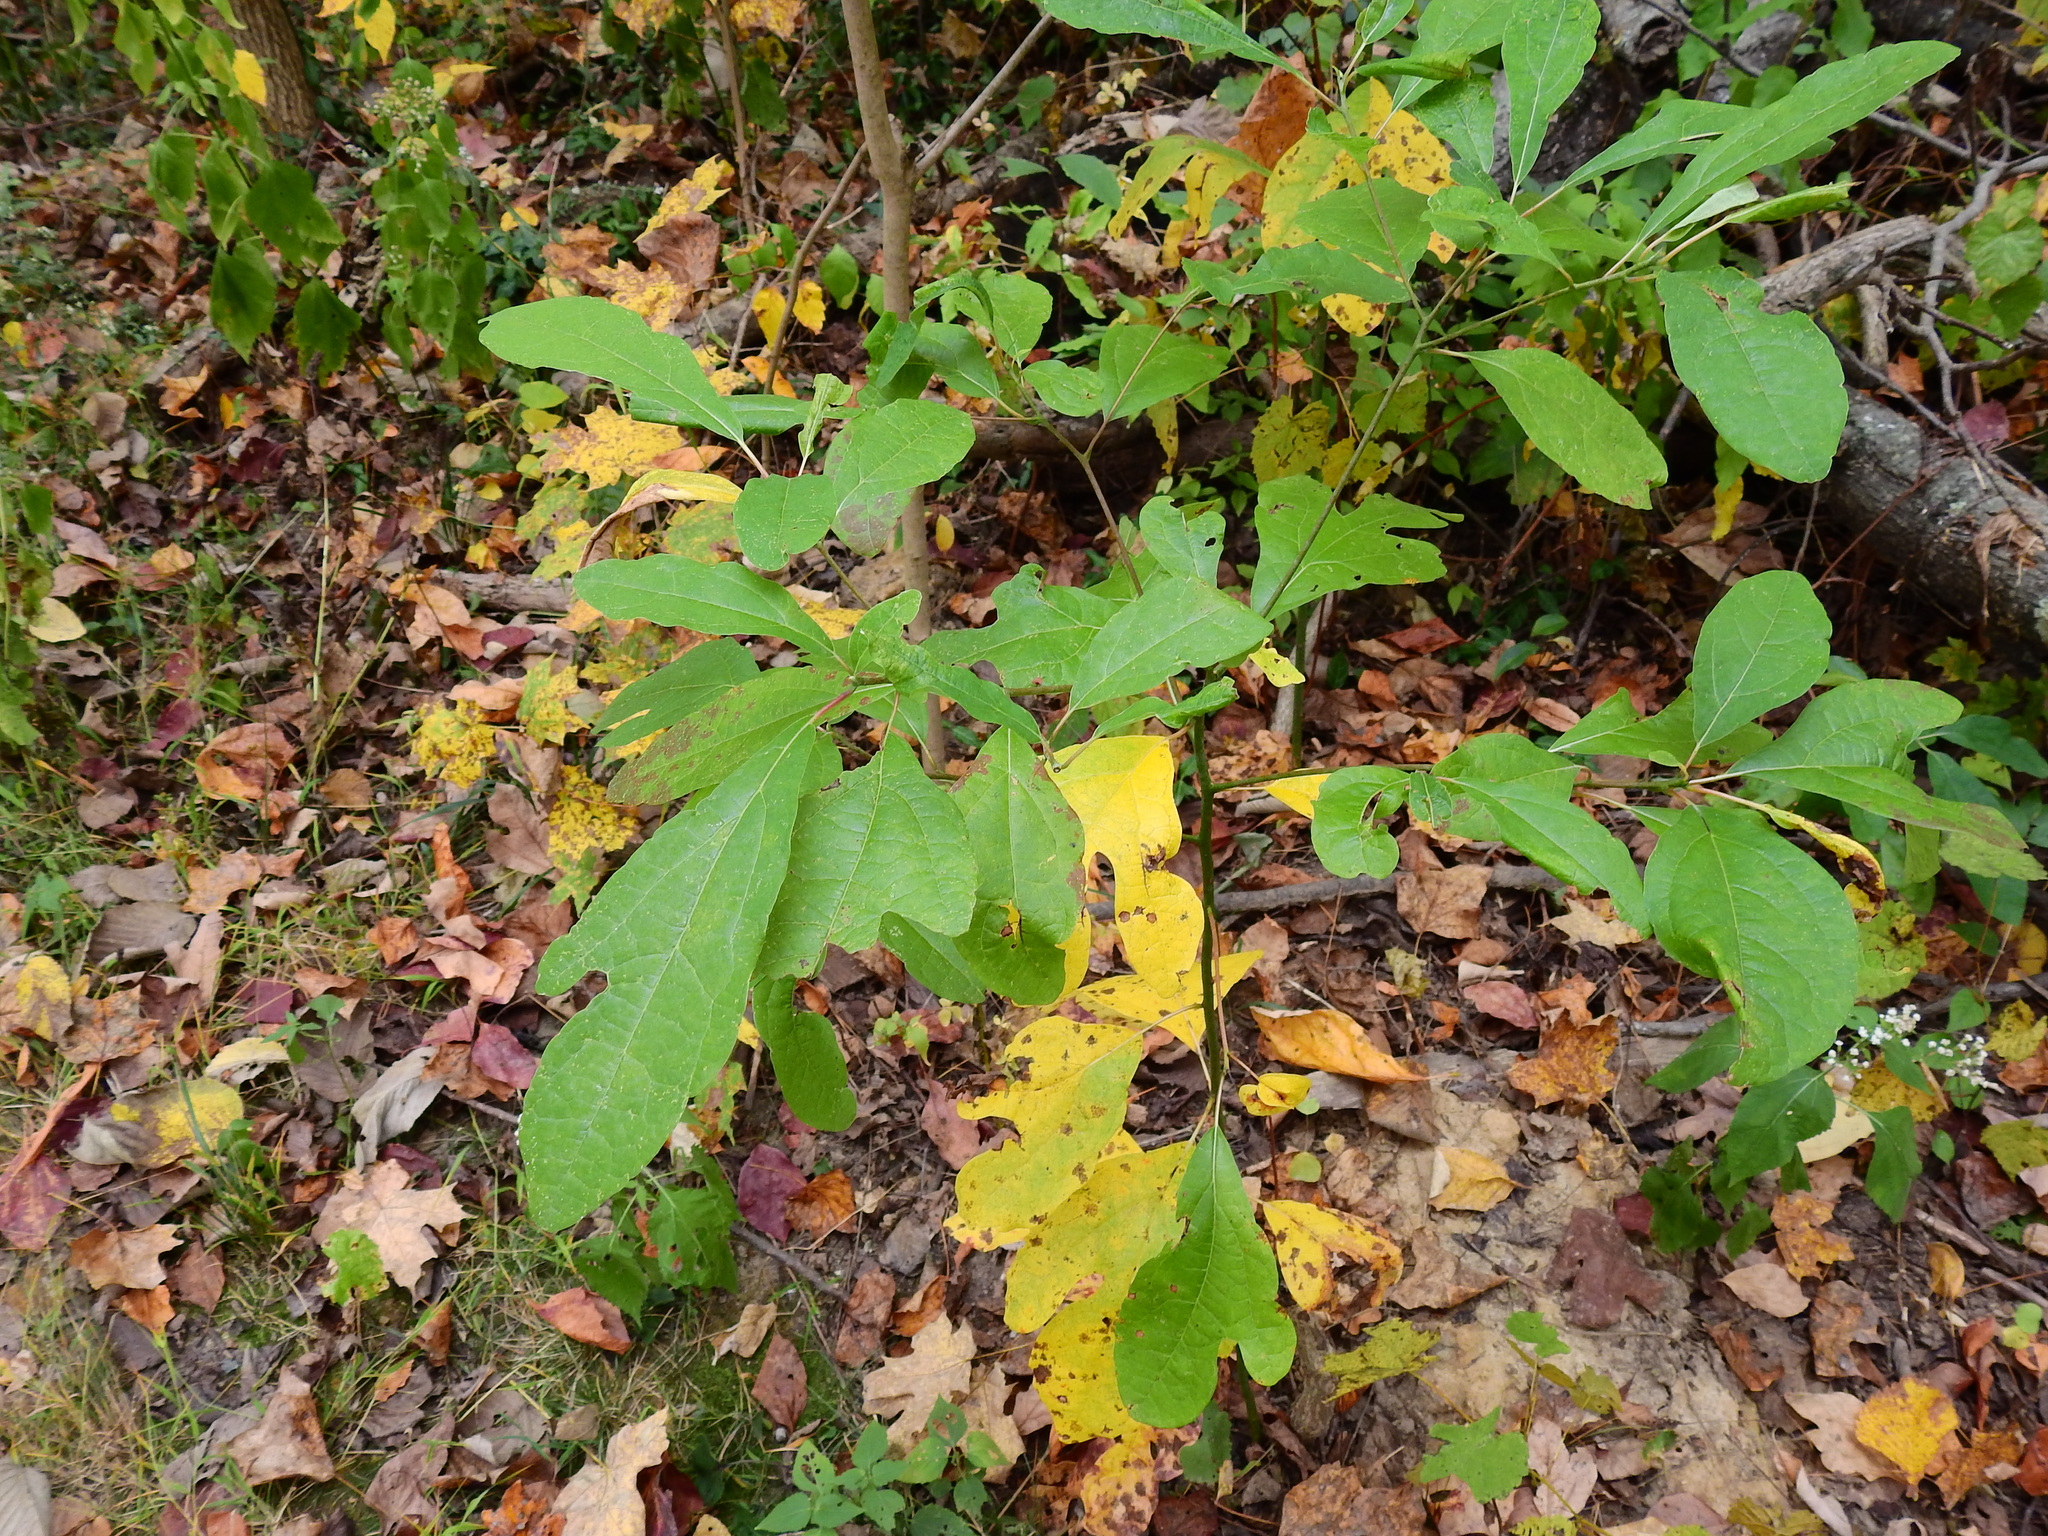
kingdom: Plantae
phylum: Tracheophyta
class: Magnoliopsida
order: Laurales
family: Lauraceae
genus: Sassafras
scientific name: Sassafras albidum
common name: Sassafras
